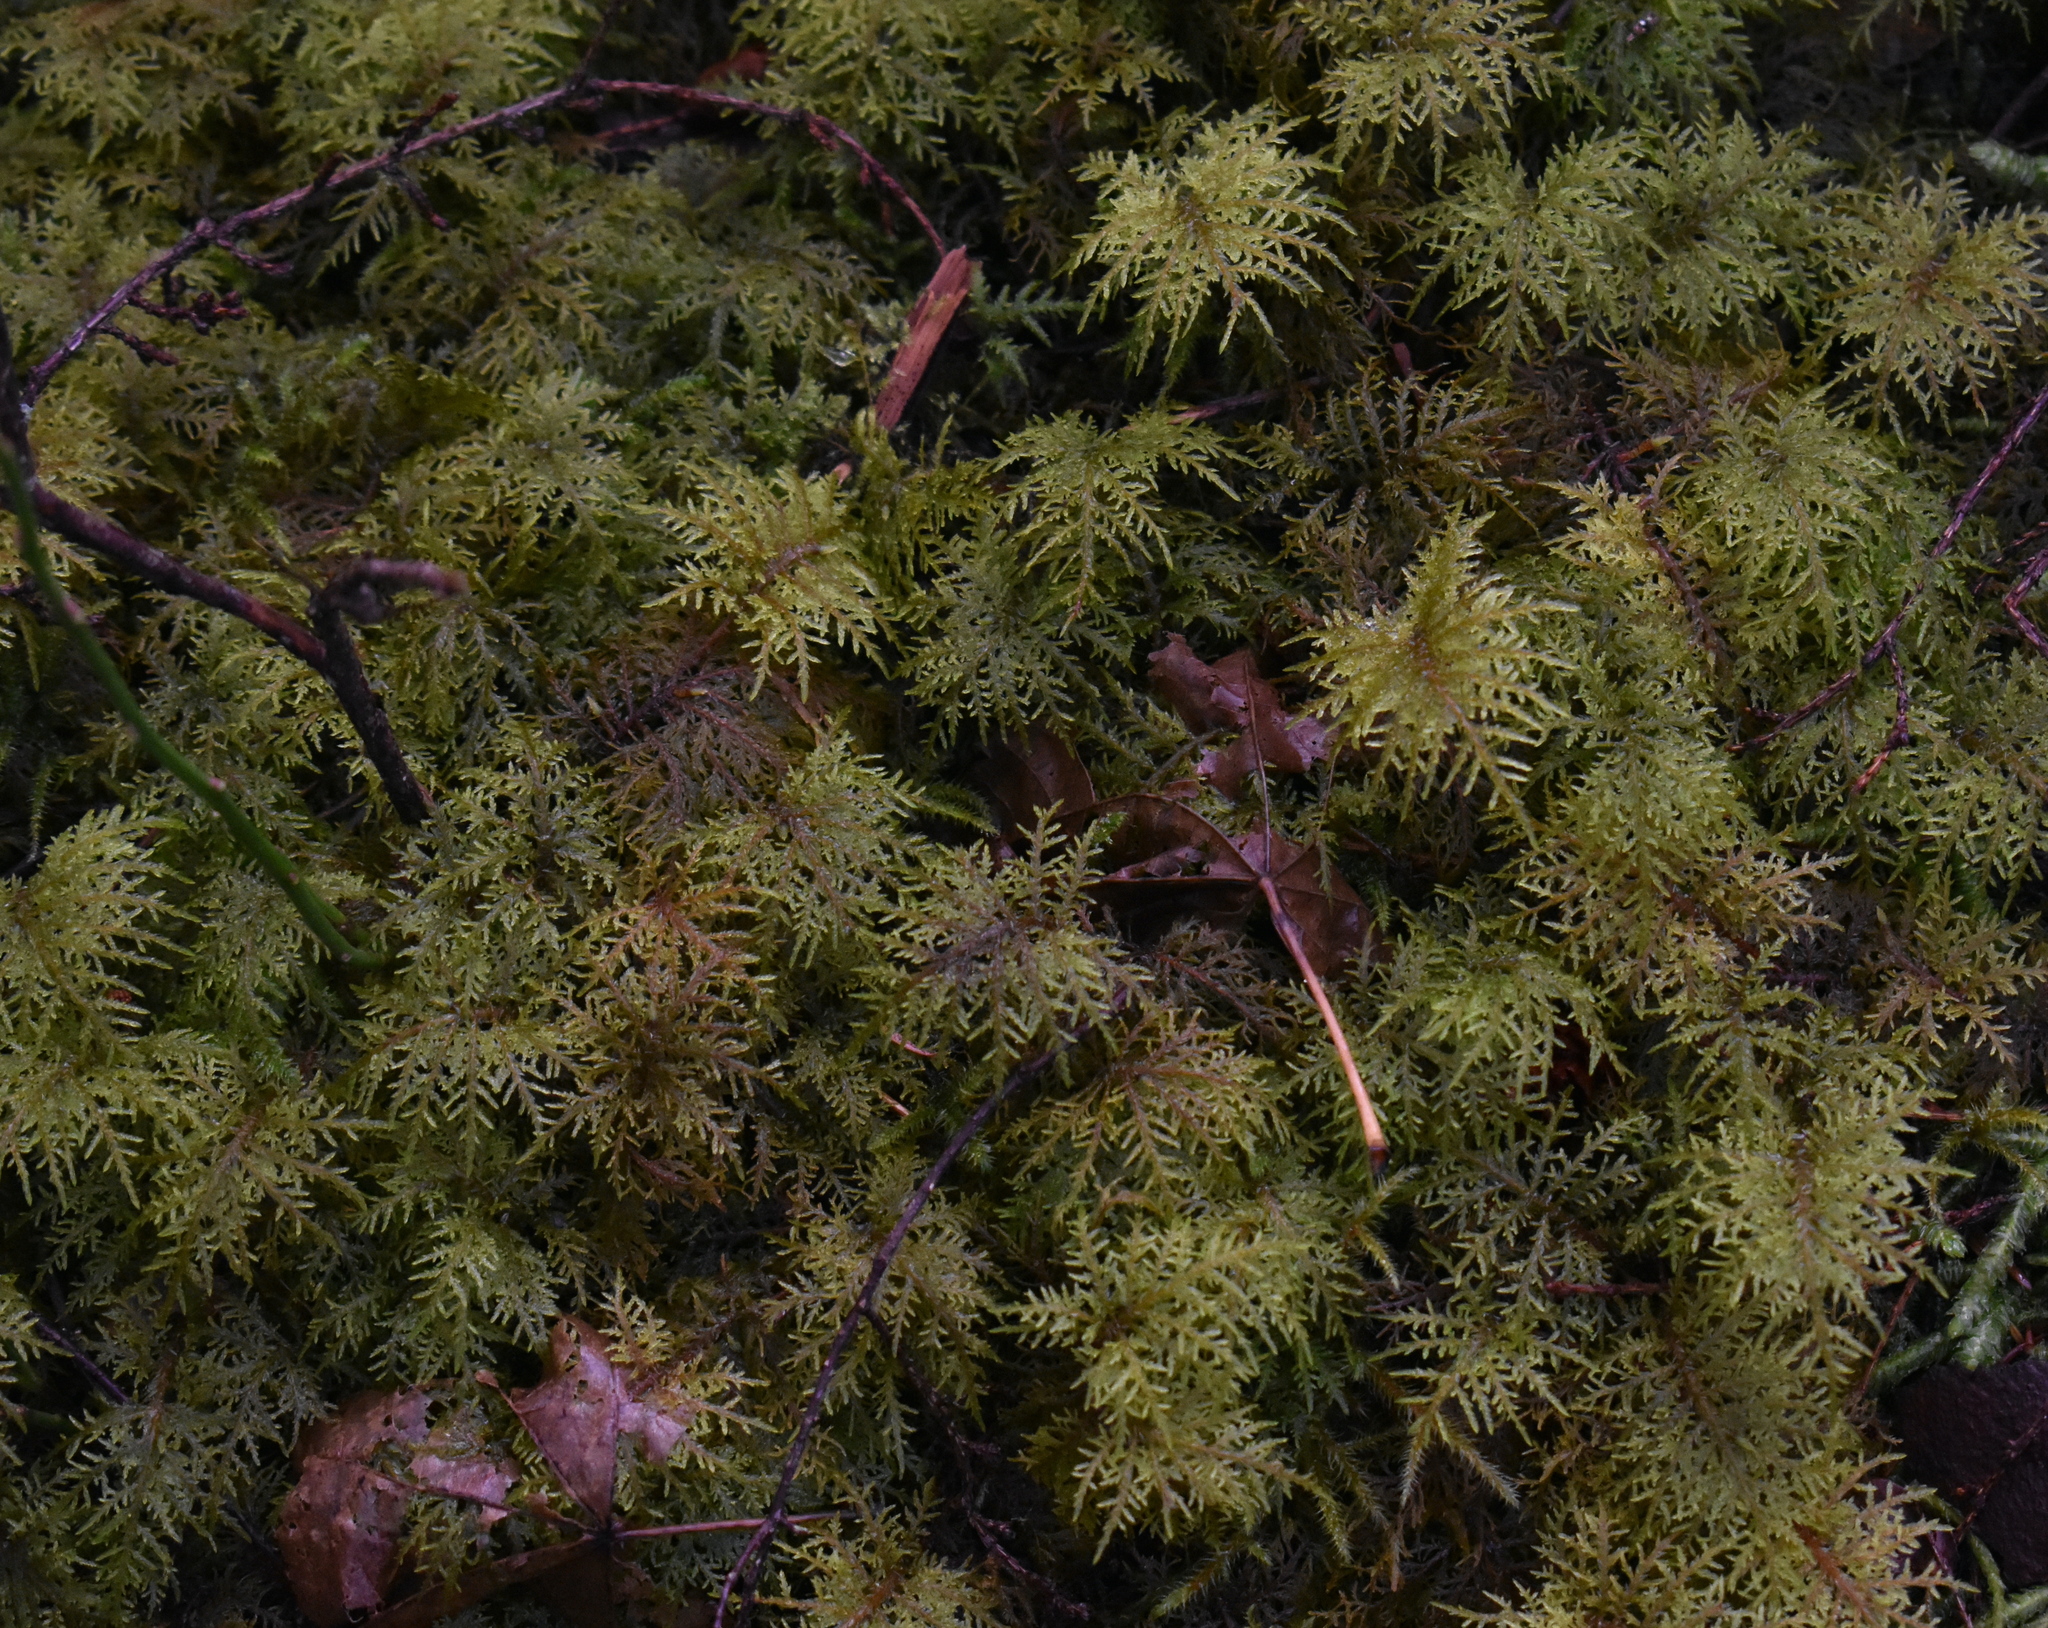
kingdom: Plantae
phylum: Bryophyta
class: Bryopsida
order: Hypnales
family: Hylocomiaceae
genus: Hylocomium
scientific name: Hylocomium splendens
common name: Stairstep moss
